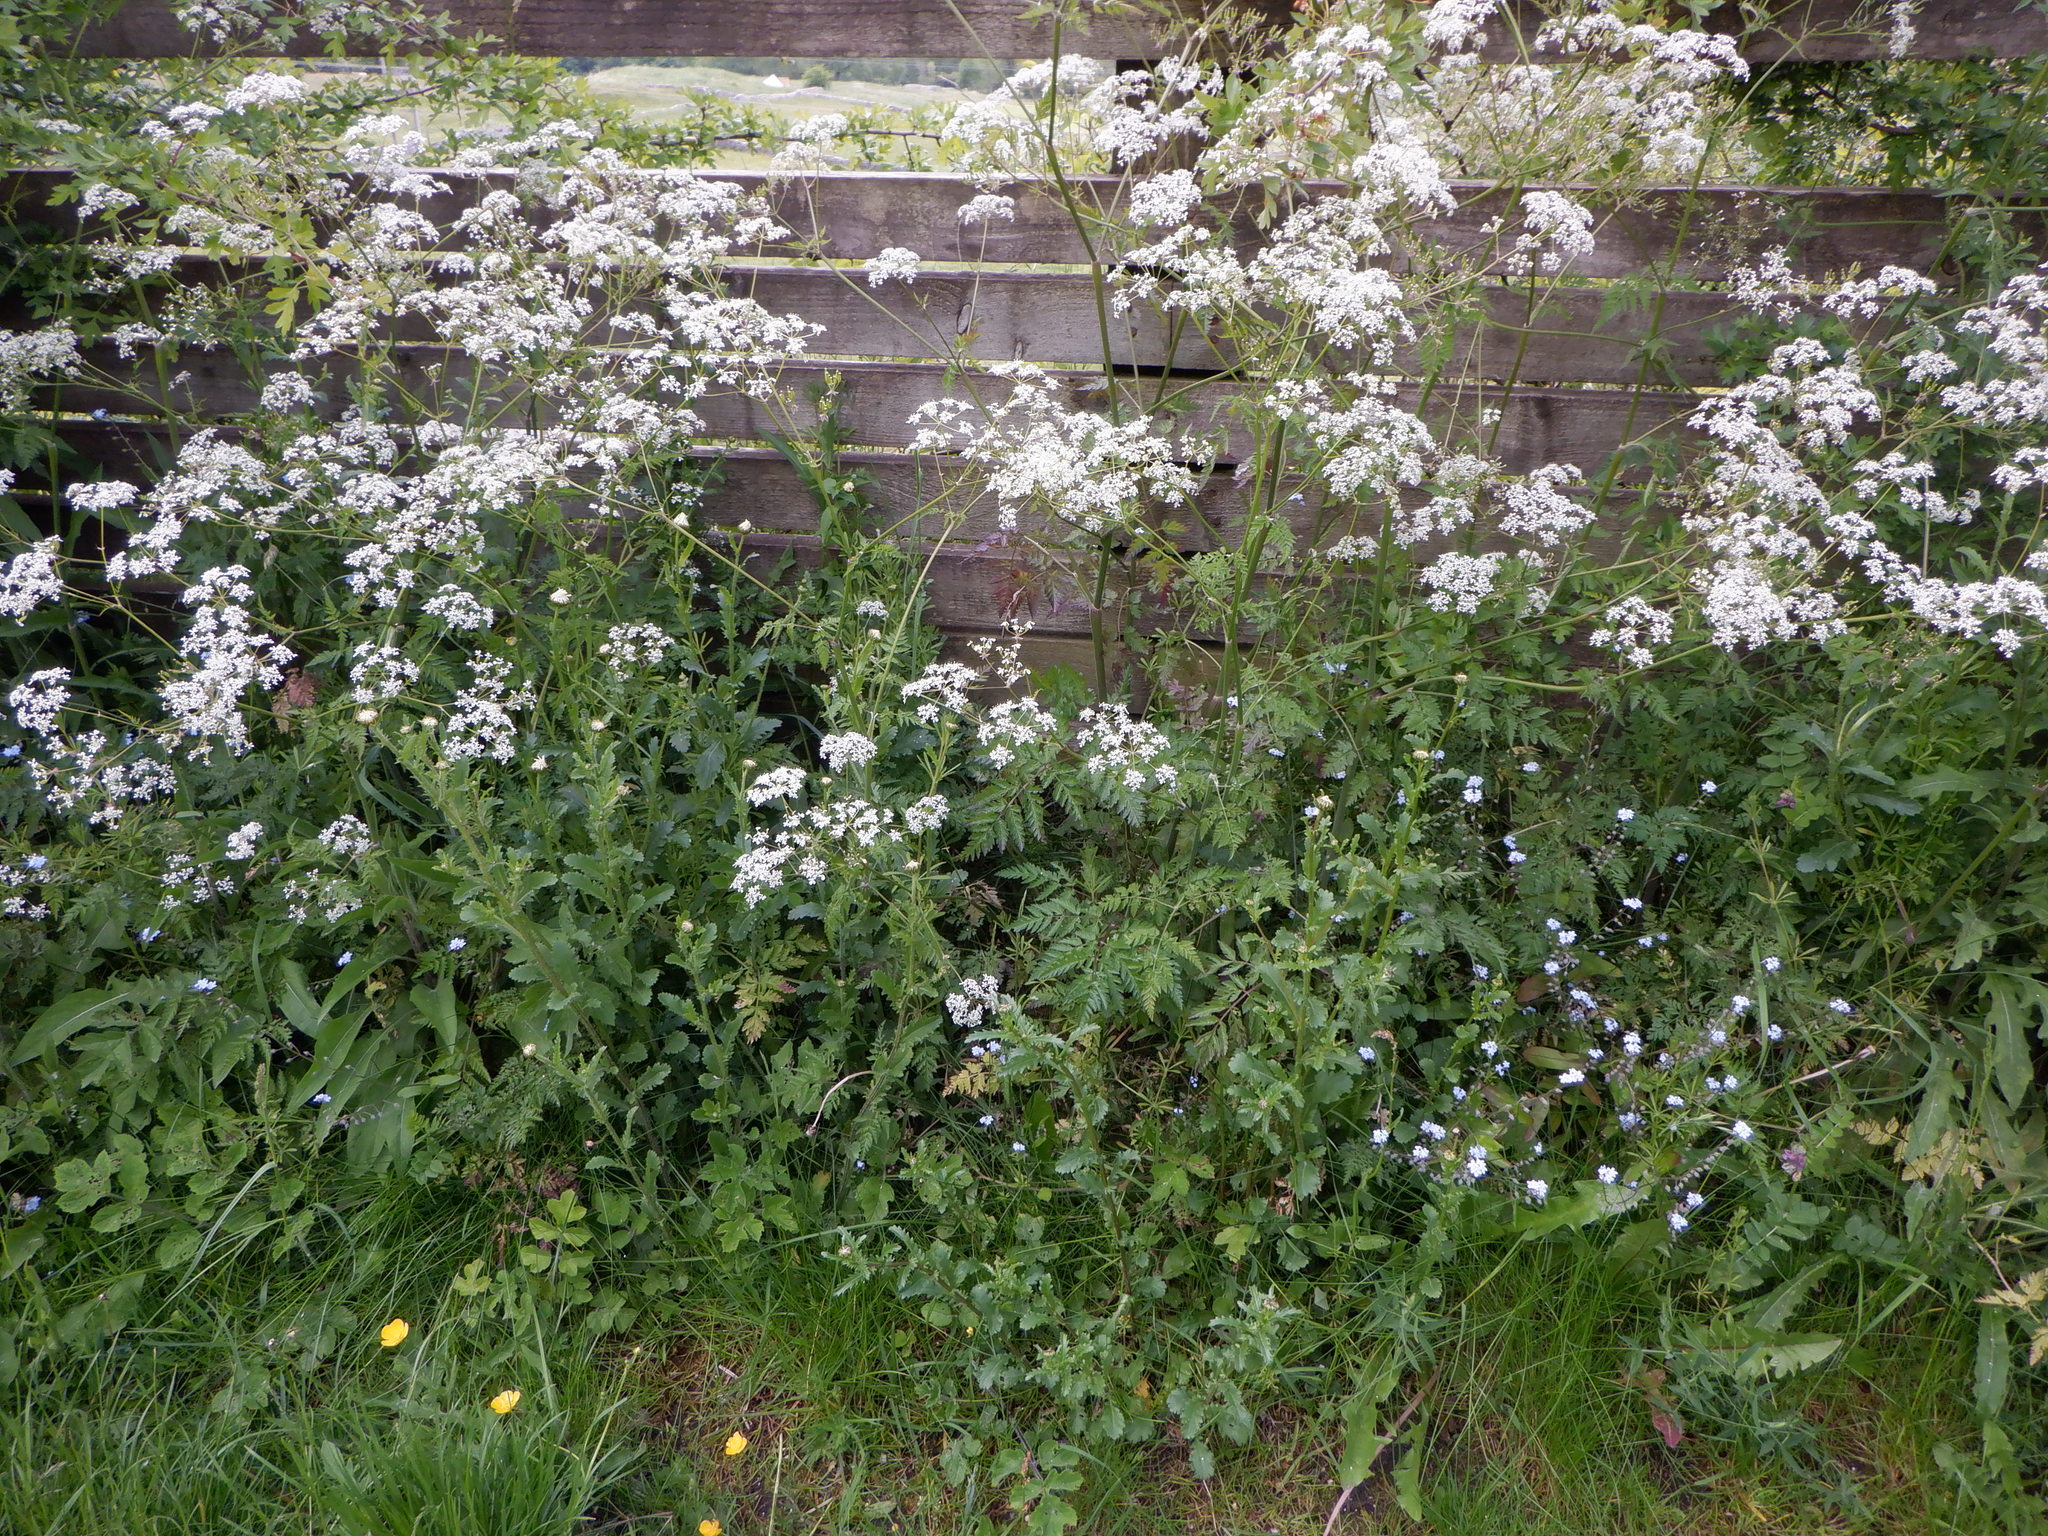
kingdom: Plantae
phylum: Tracheophyta
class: Magnoliopsida
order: Apiales
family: Apiaceae
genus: Anthriscus
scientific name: Anthriscus sylvestris
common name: Cow parsley
